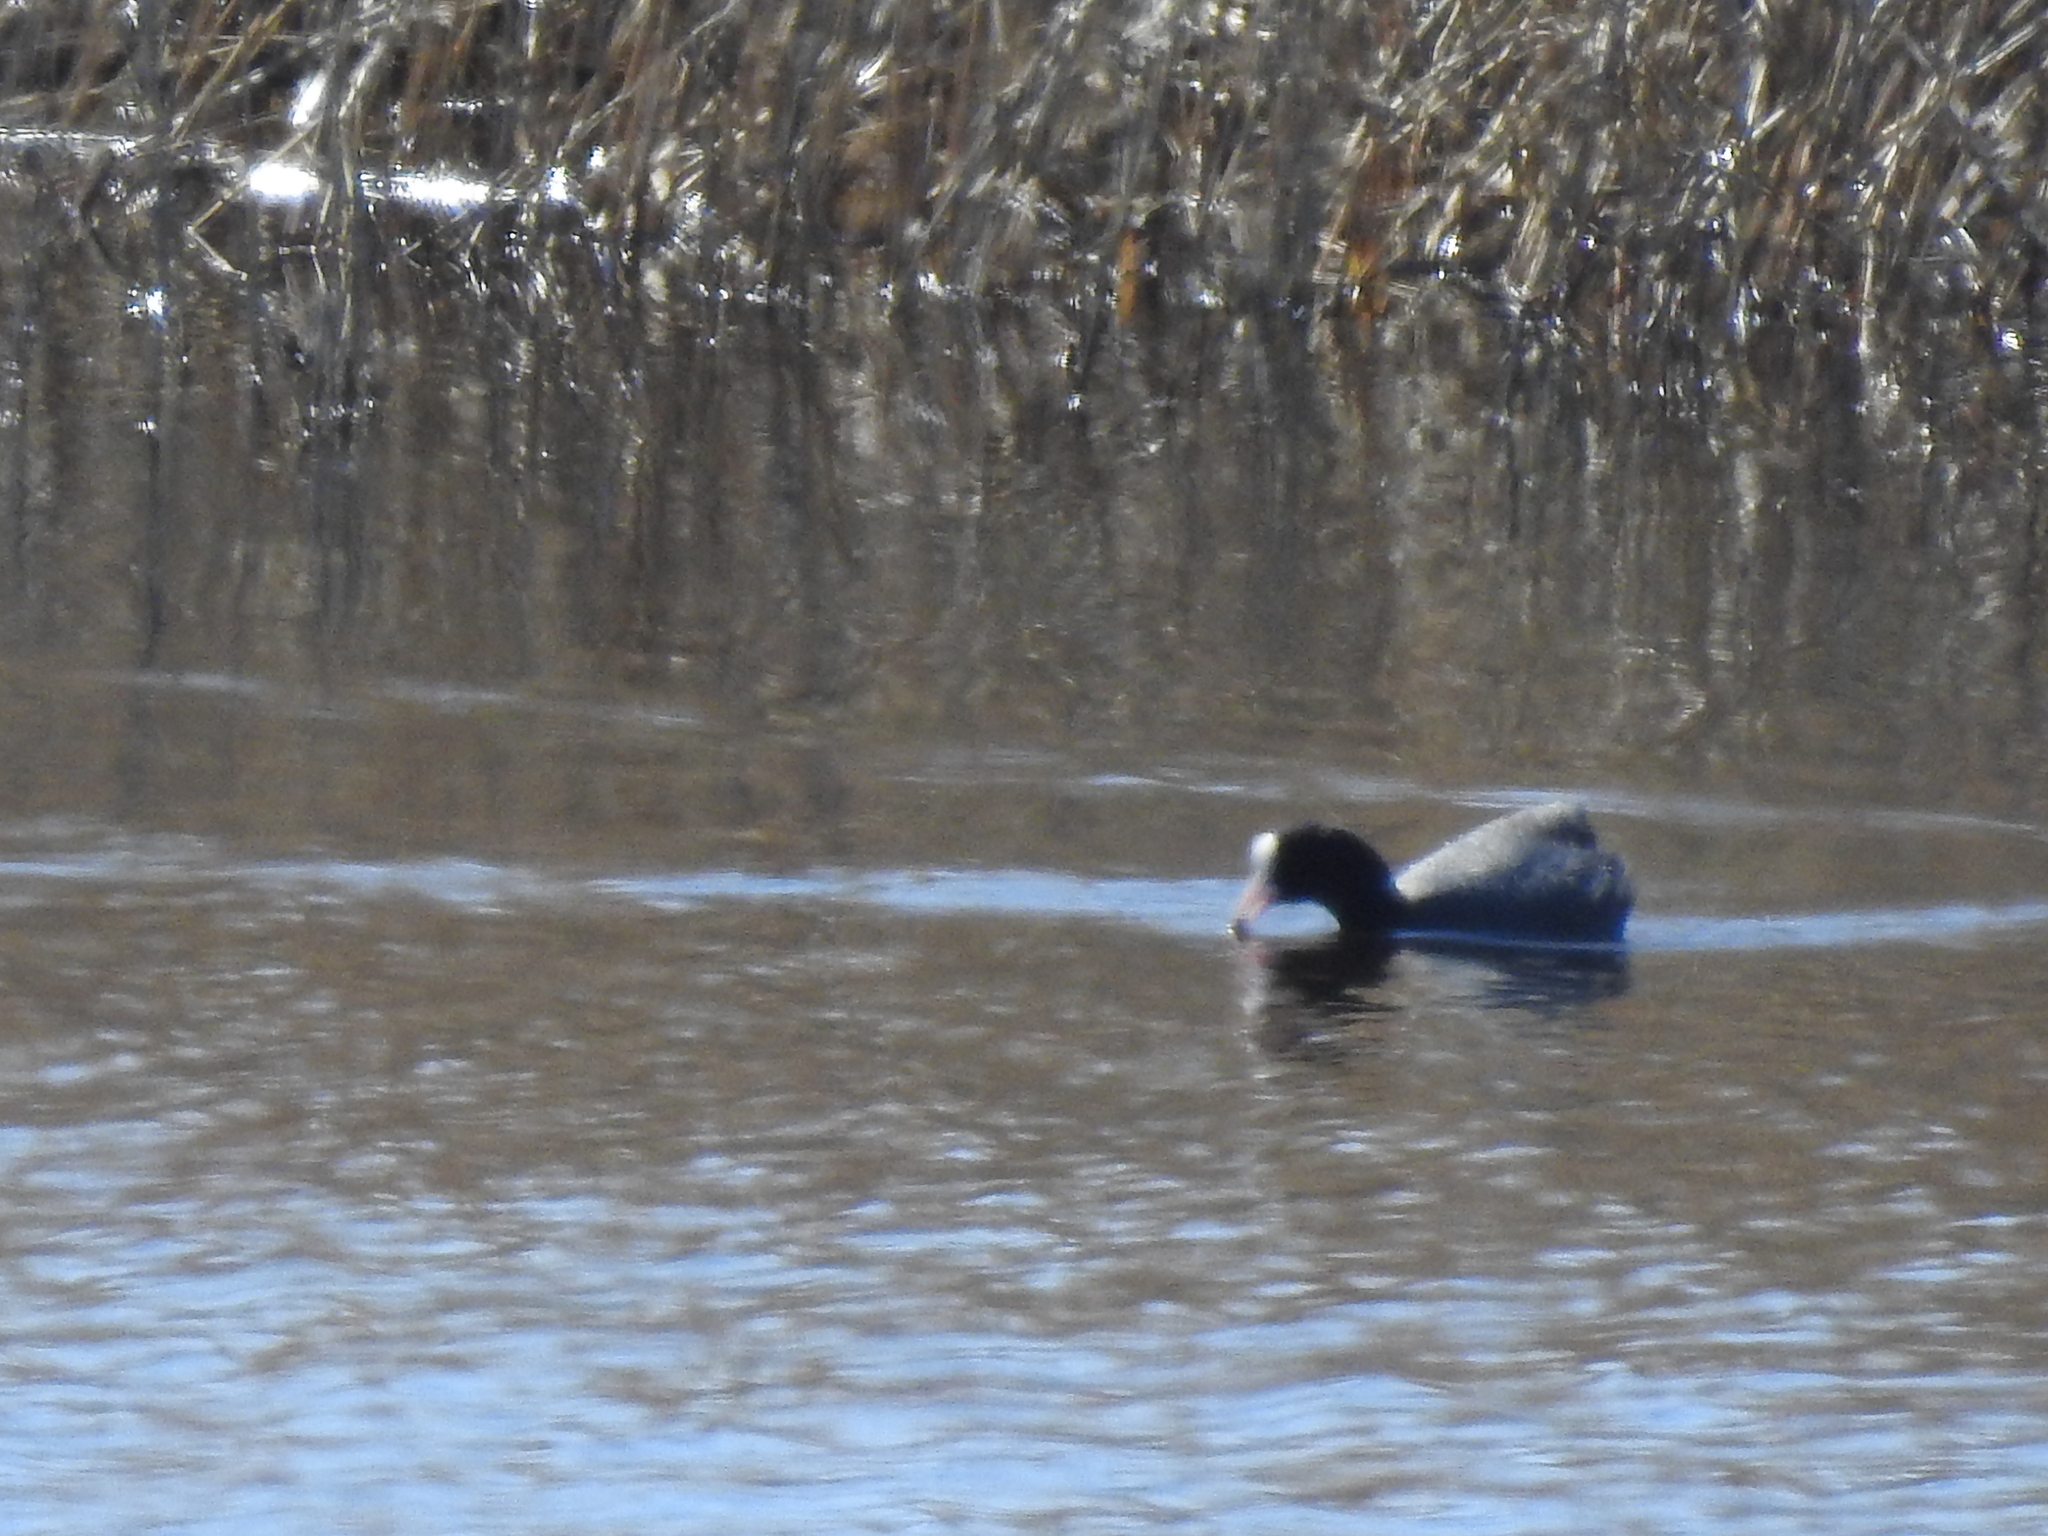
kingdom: Animalia
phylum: Chordata
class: Aves
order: Gruiformes
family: Rallidae
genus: Fulica
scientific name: Fulica atra
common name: Eurasian coot
